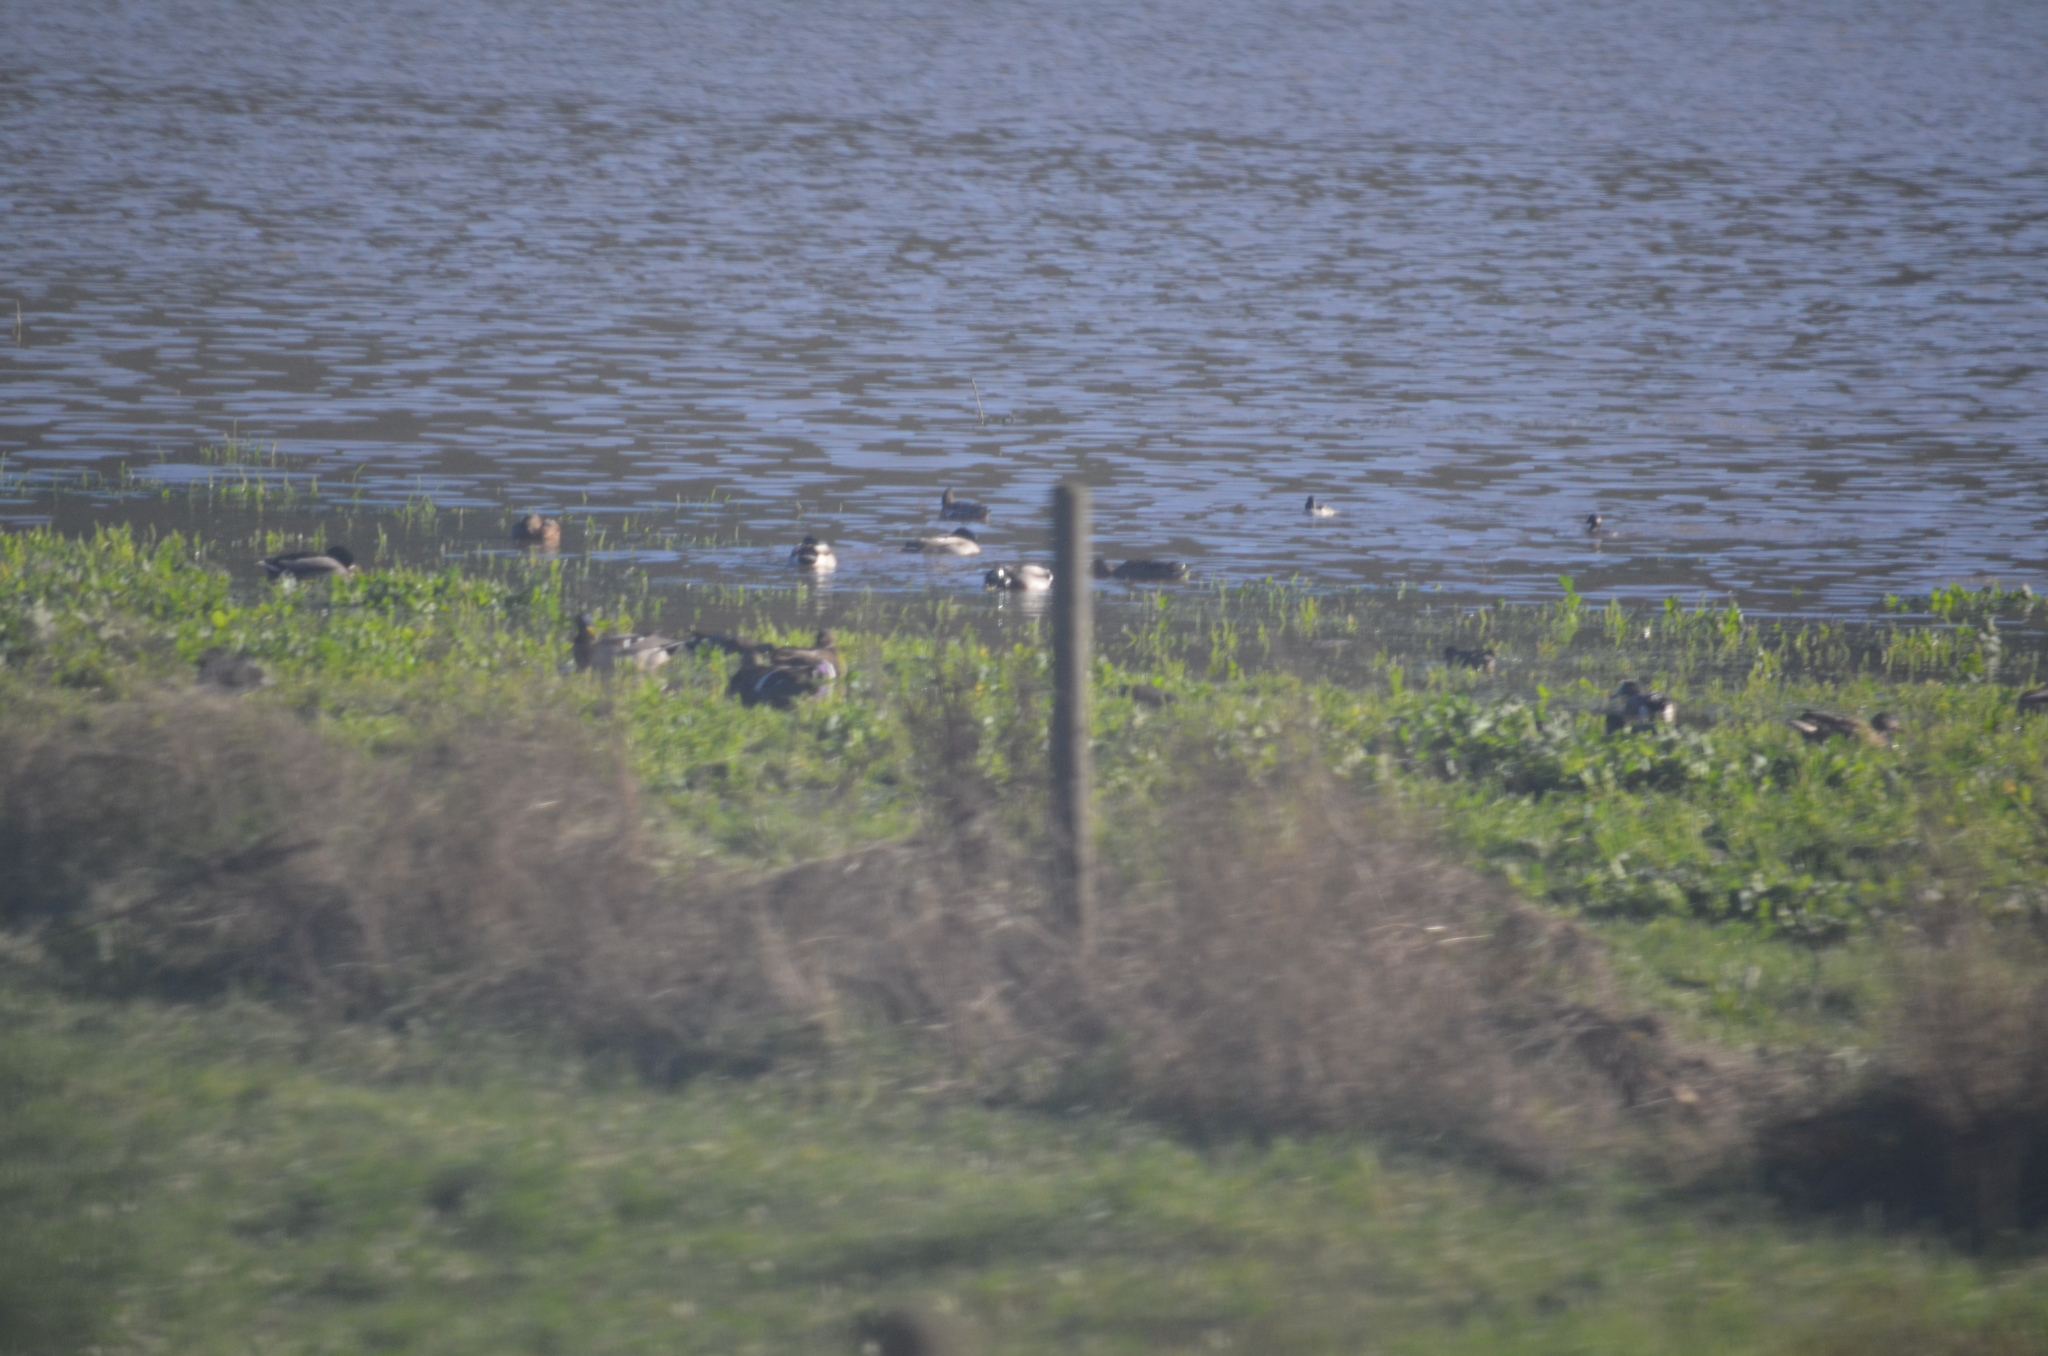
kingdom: Animalia
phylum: Chordata
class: Aves
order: Anseriformes
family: Anatidae
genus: Bucephala
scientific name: Bucephala albeola
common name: Bufflehead
